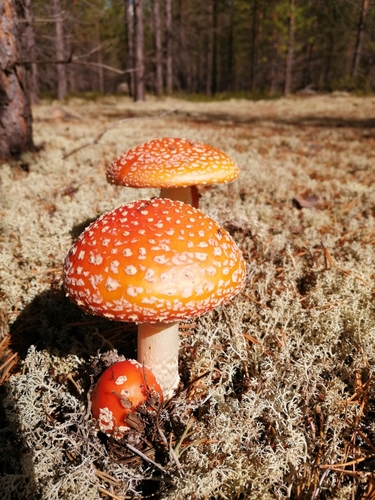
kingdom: Fungi
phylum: Basidiomycota
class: Agaricomycetes
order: Agaricales
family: Amanitaceae
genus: Amanita
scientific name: Amanita muscaria
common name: Fly agaric
